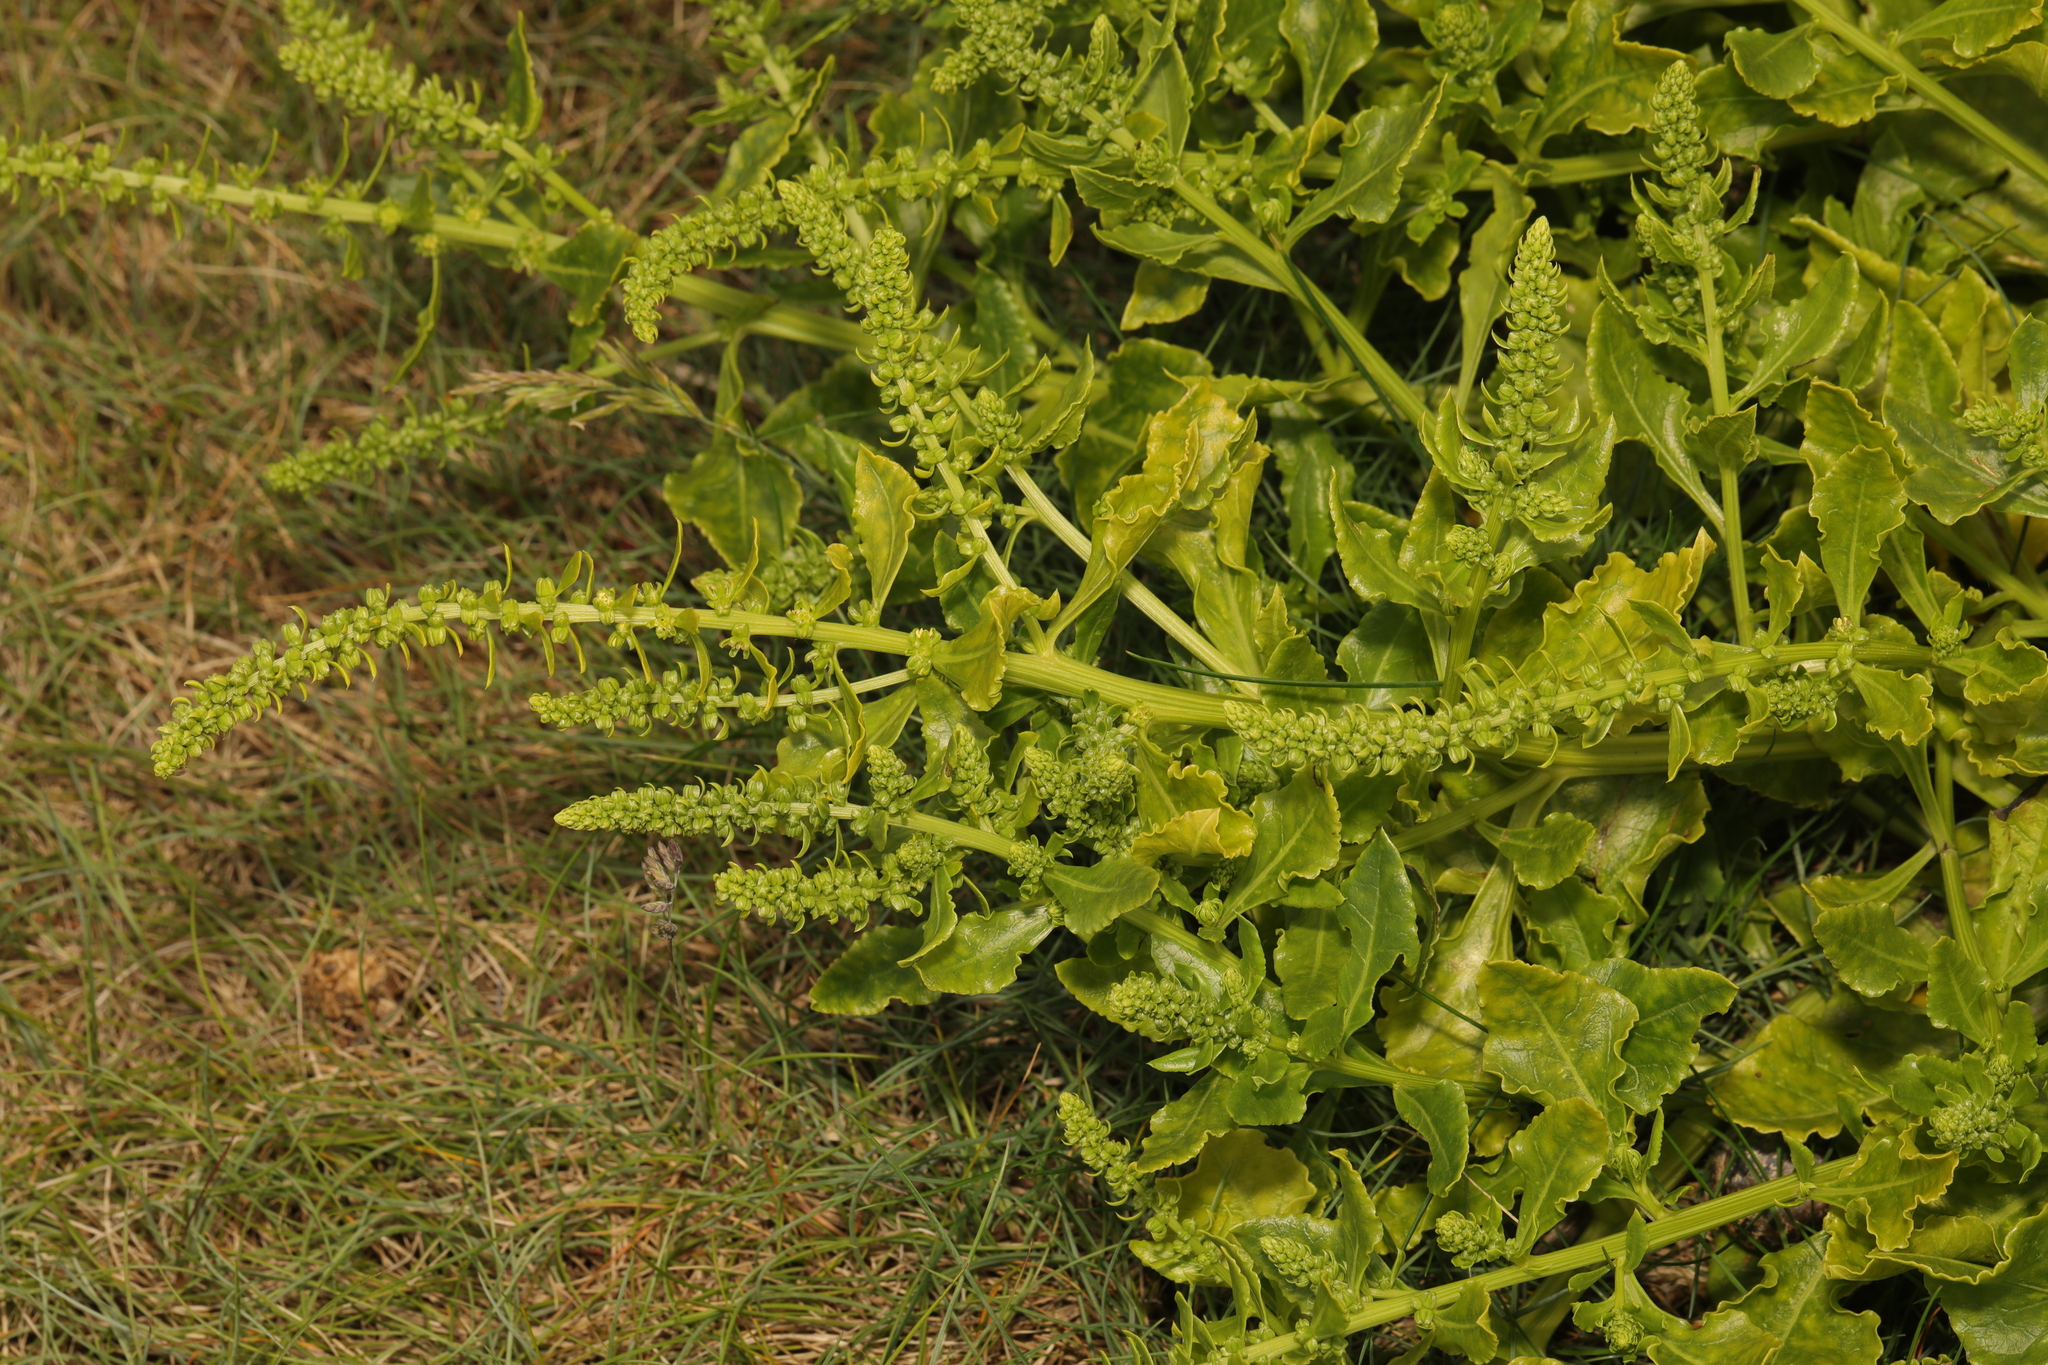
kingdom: Plantae
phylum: Tracheophyta
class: Magnoliopsida
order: Caryophyllales
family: Amaranthaceae
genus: Beta
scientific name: Beta vulgaris
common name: Beet
